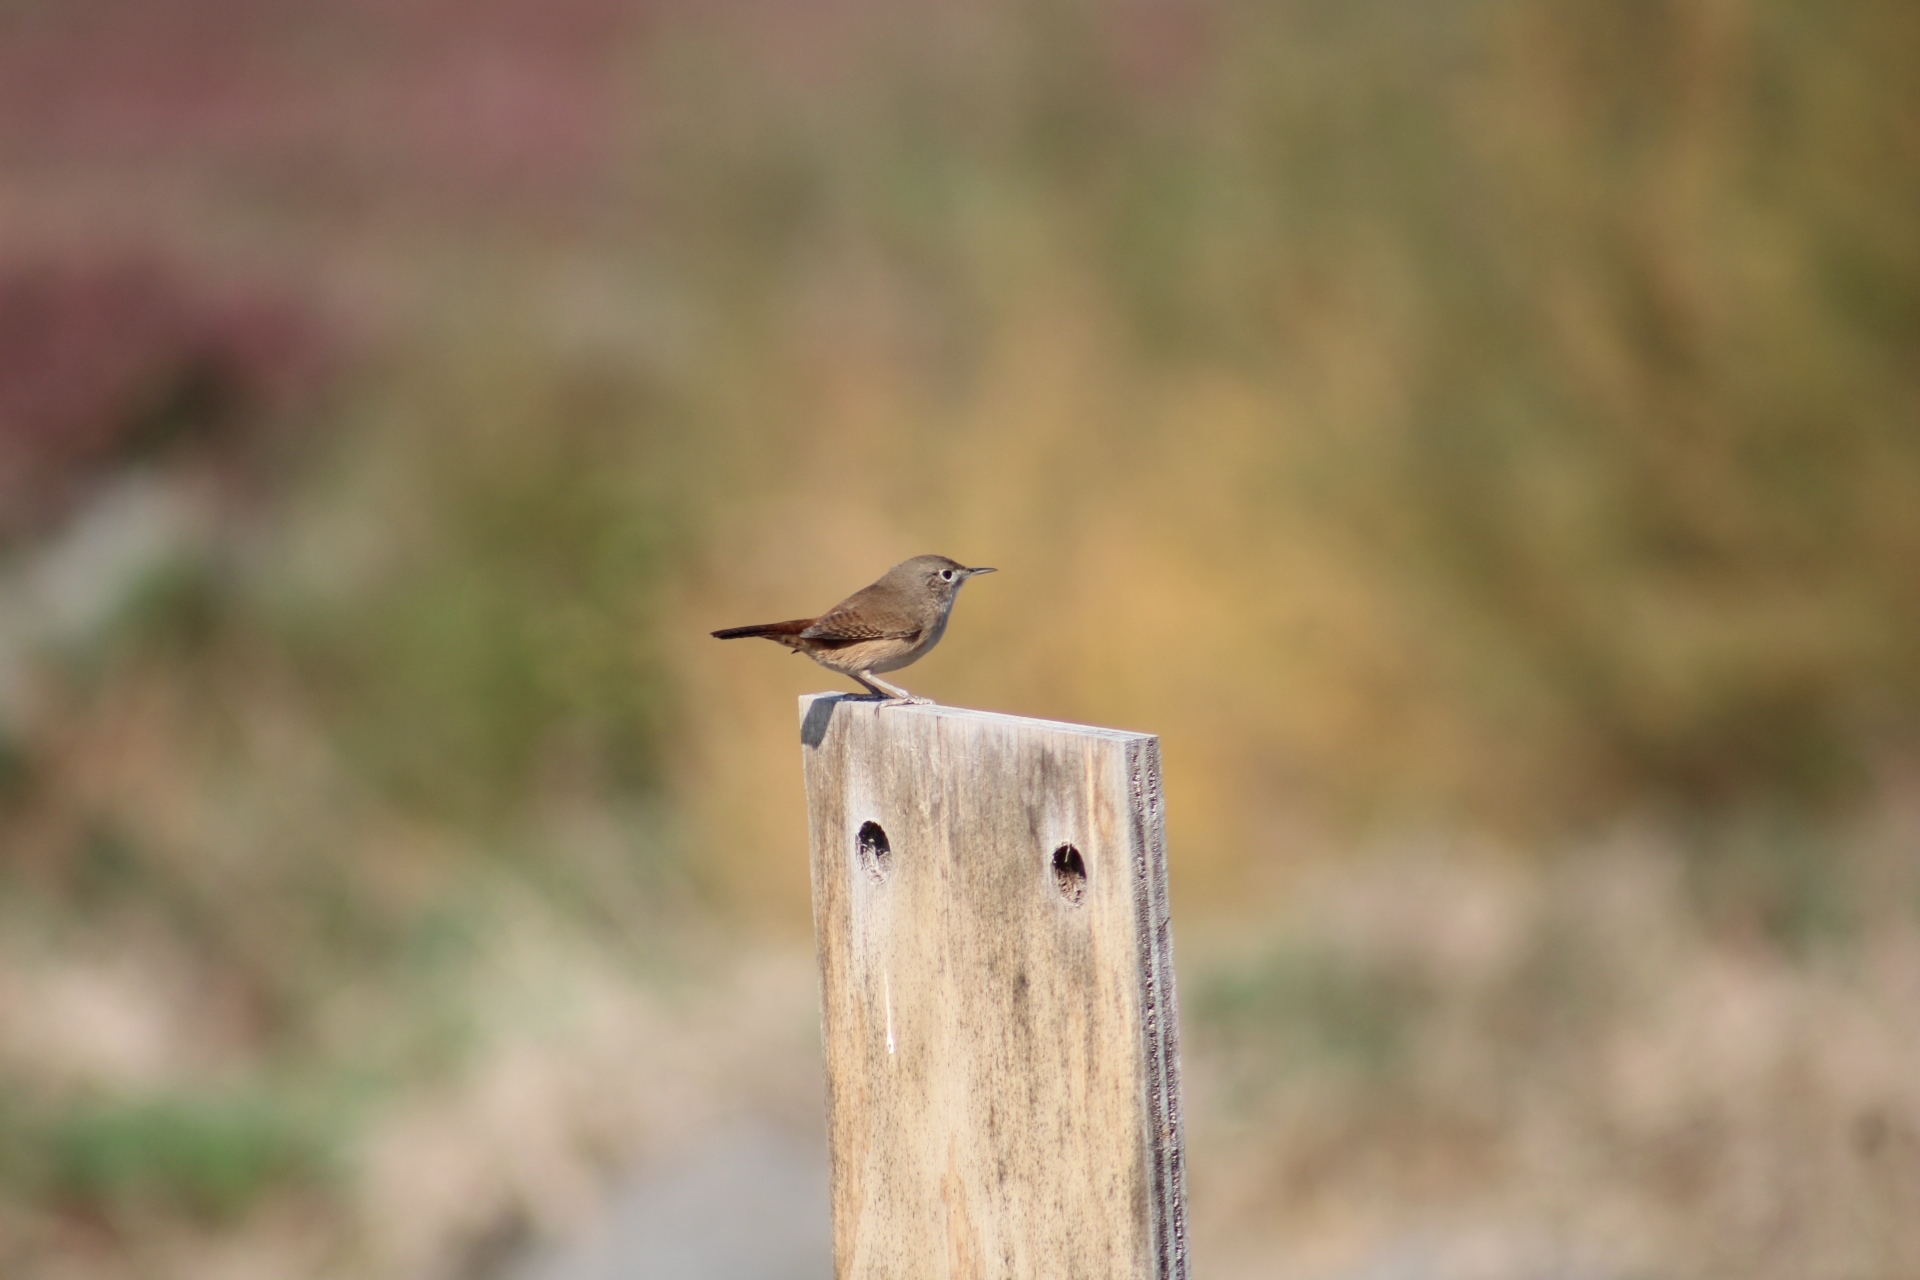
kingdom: Animalia
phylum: Chordata
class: Aves
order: Passeriformes
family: Troglodytidae
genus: Troglodytes
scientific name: Troglodytes aedon
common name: House wren
